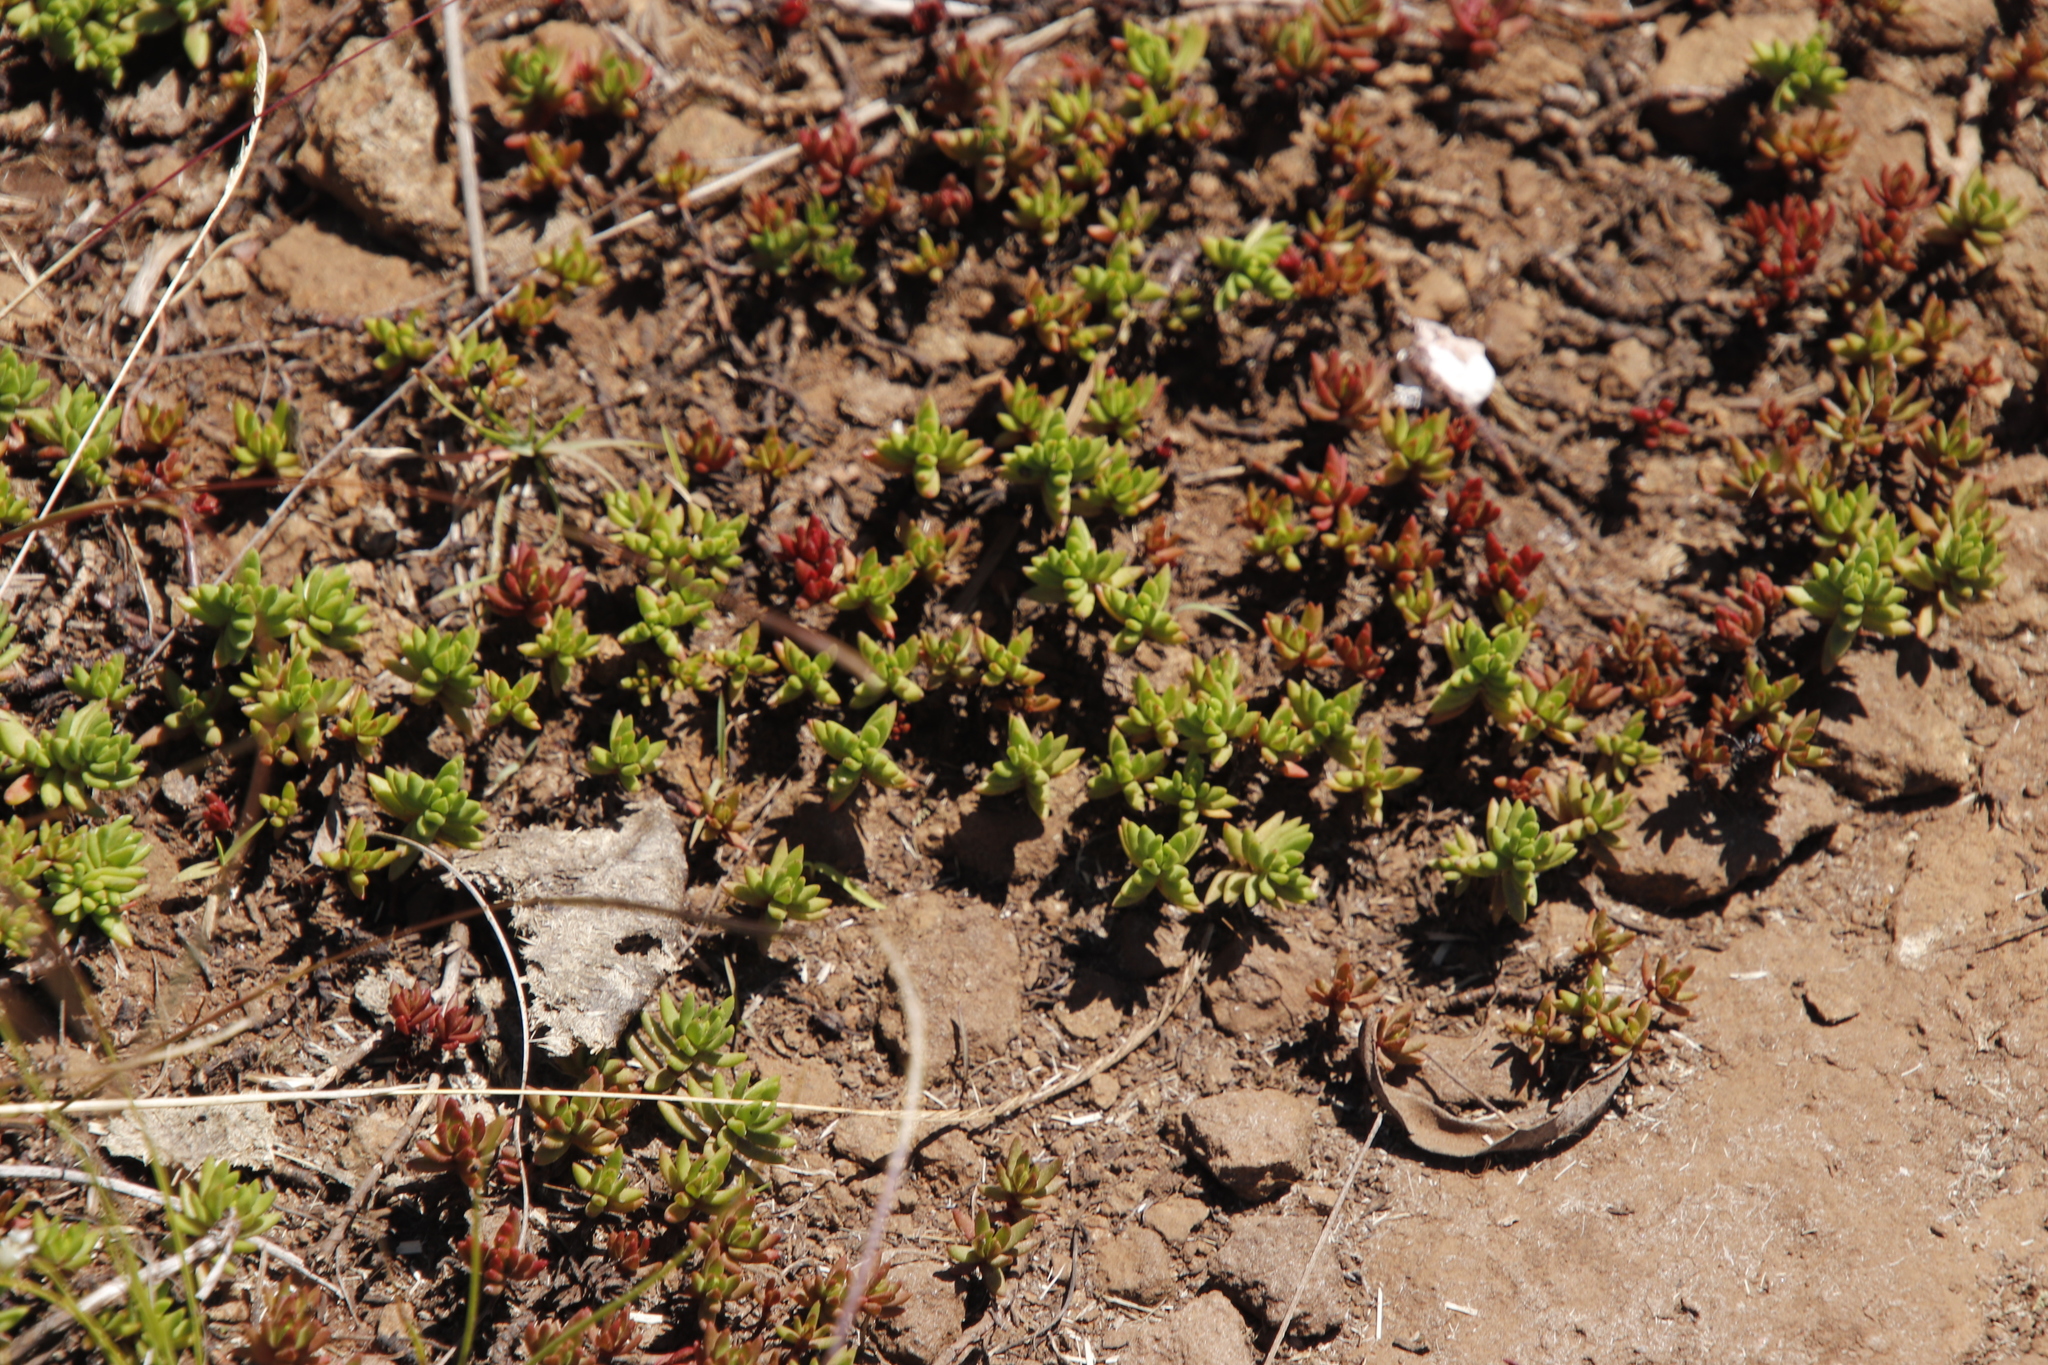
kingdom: Plantae
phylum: Tracheophyta
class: Magnoliopsida
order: Saxifragales
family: Crassulaceae
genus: Crassula
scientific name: Crassula dependens
